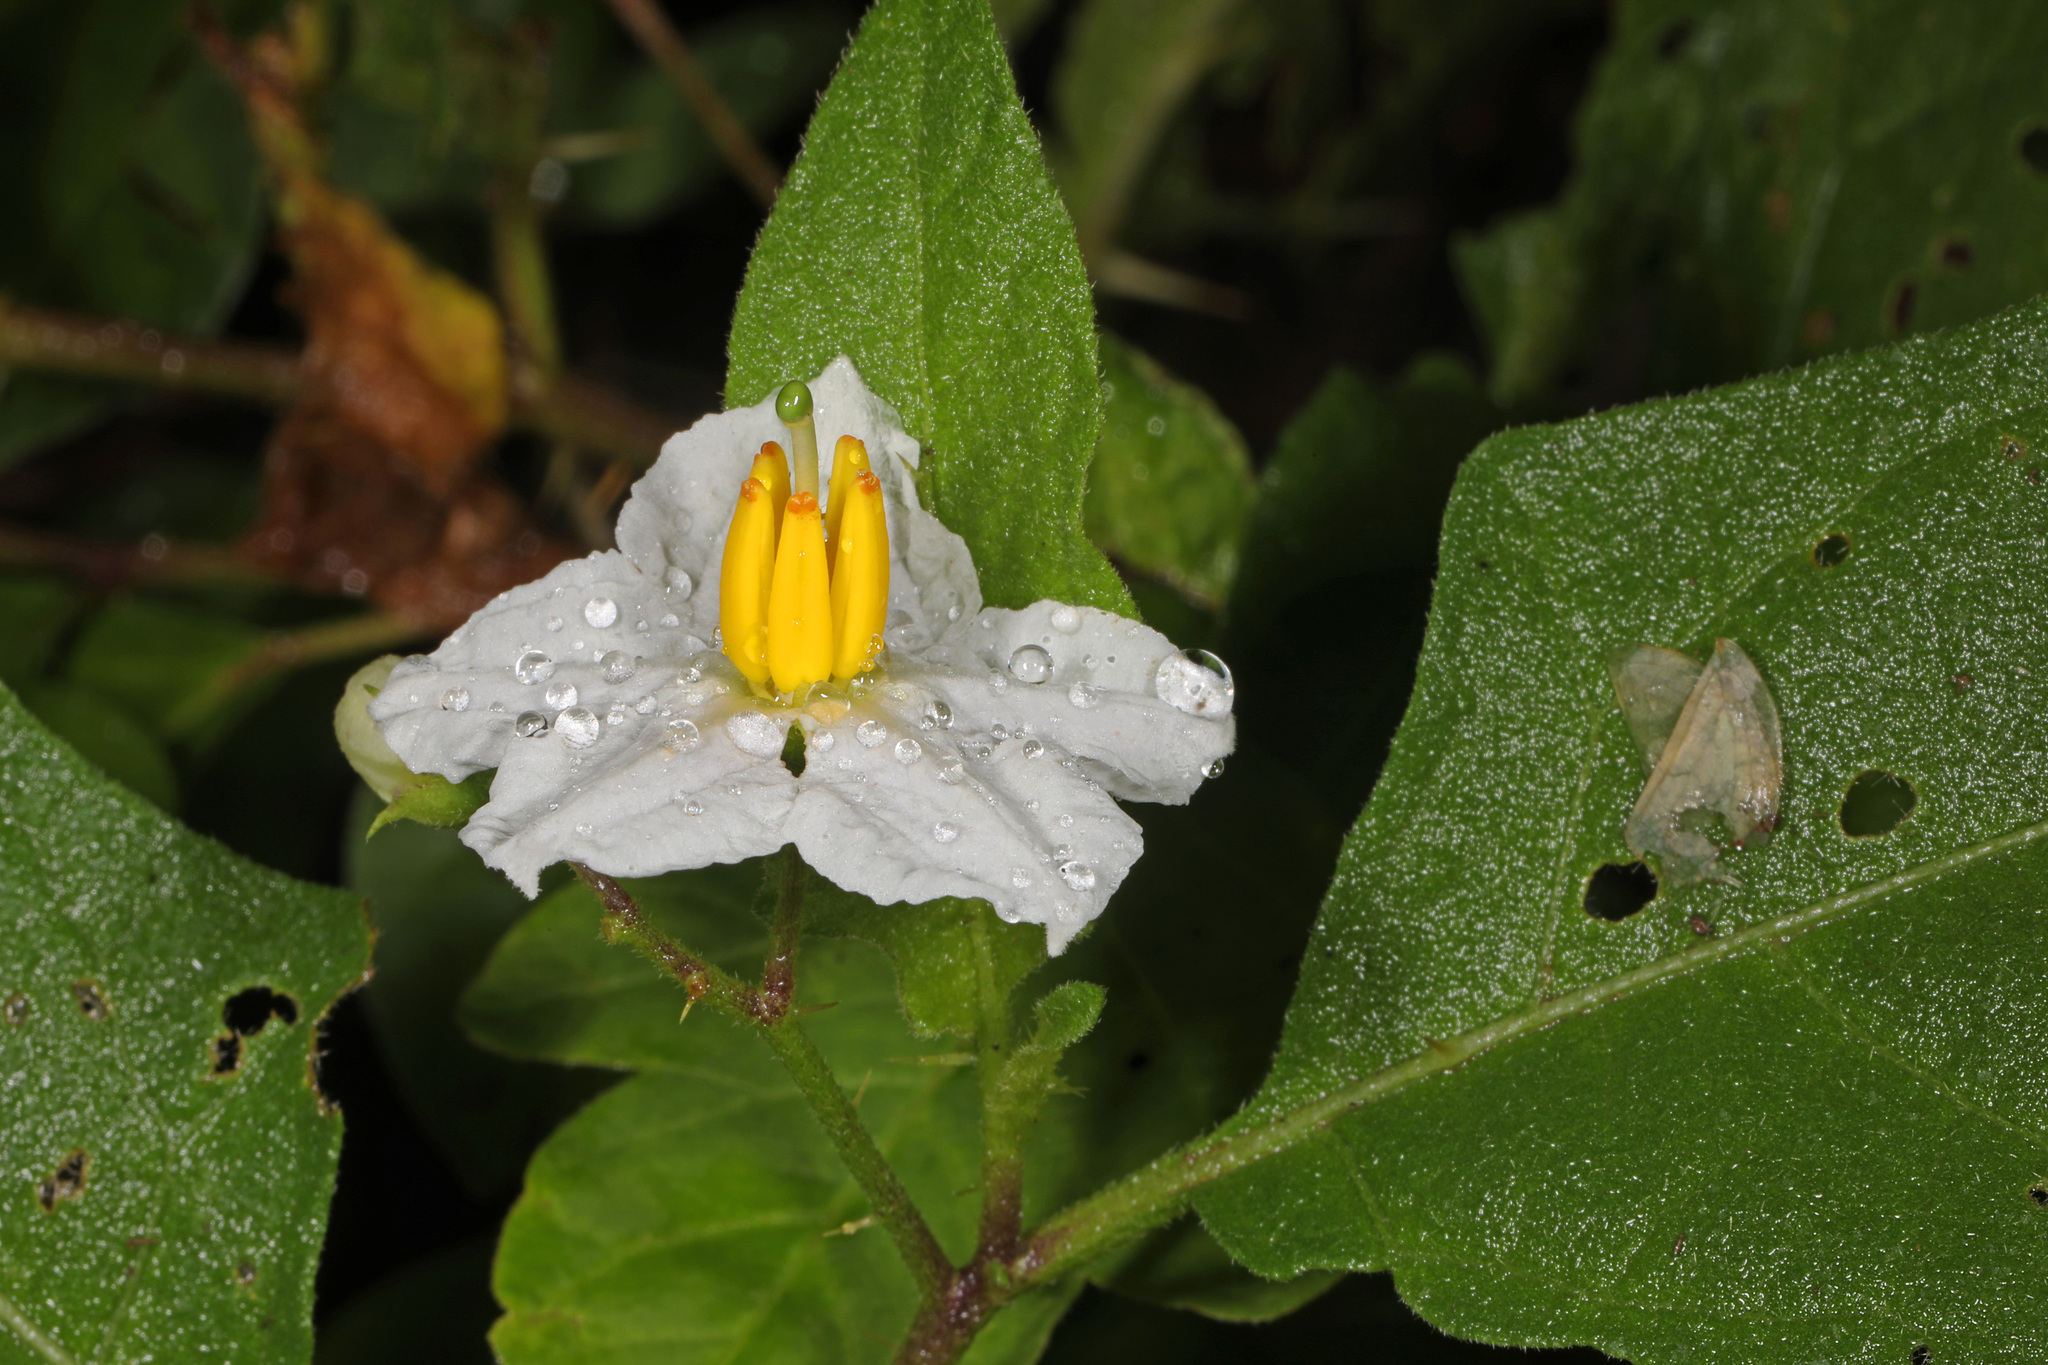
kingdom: Plantae
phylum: Tracheophyta
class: Magnoliopsida
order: Solanales
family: Solanaceae
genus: Solanum
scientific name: Solanum carolinense
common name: Horse-nettle
